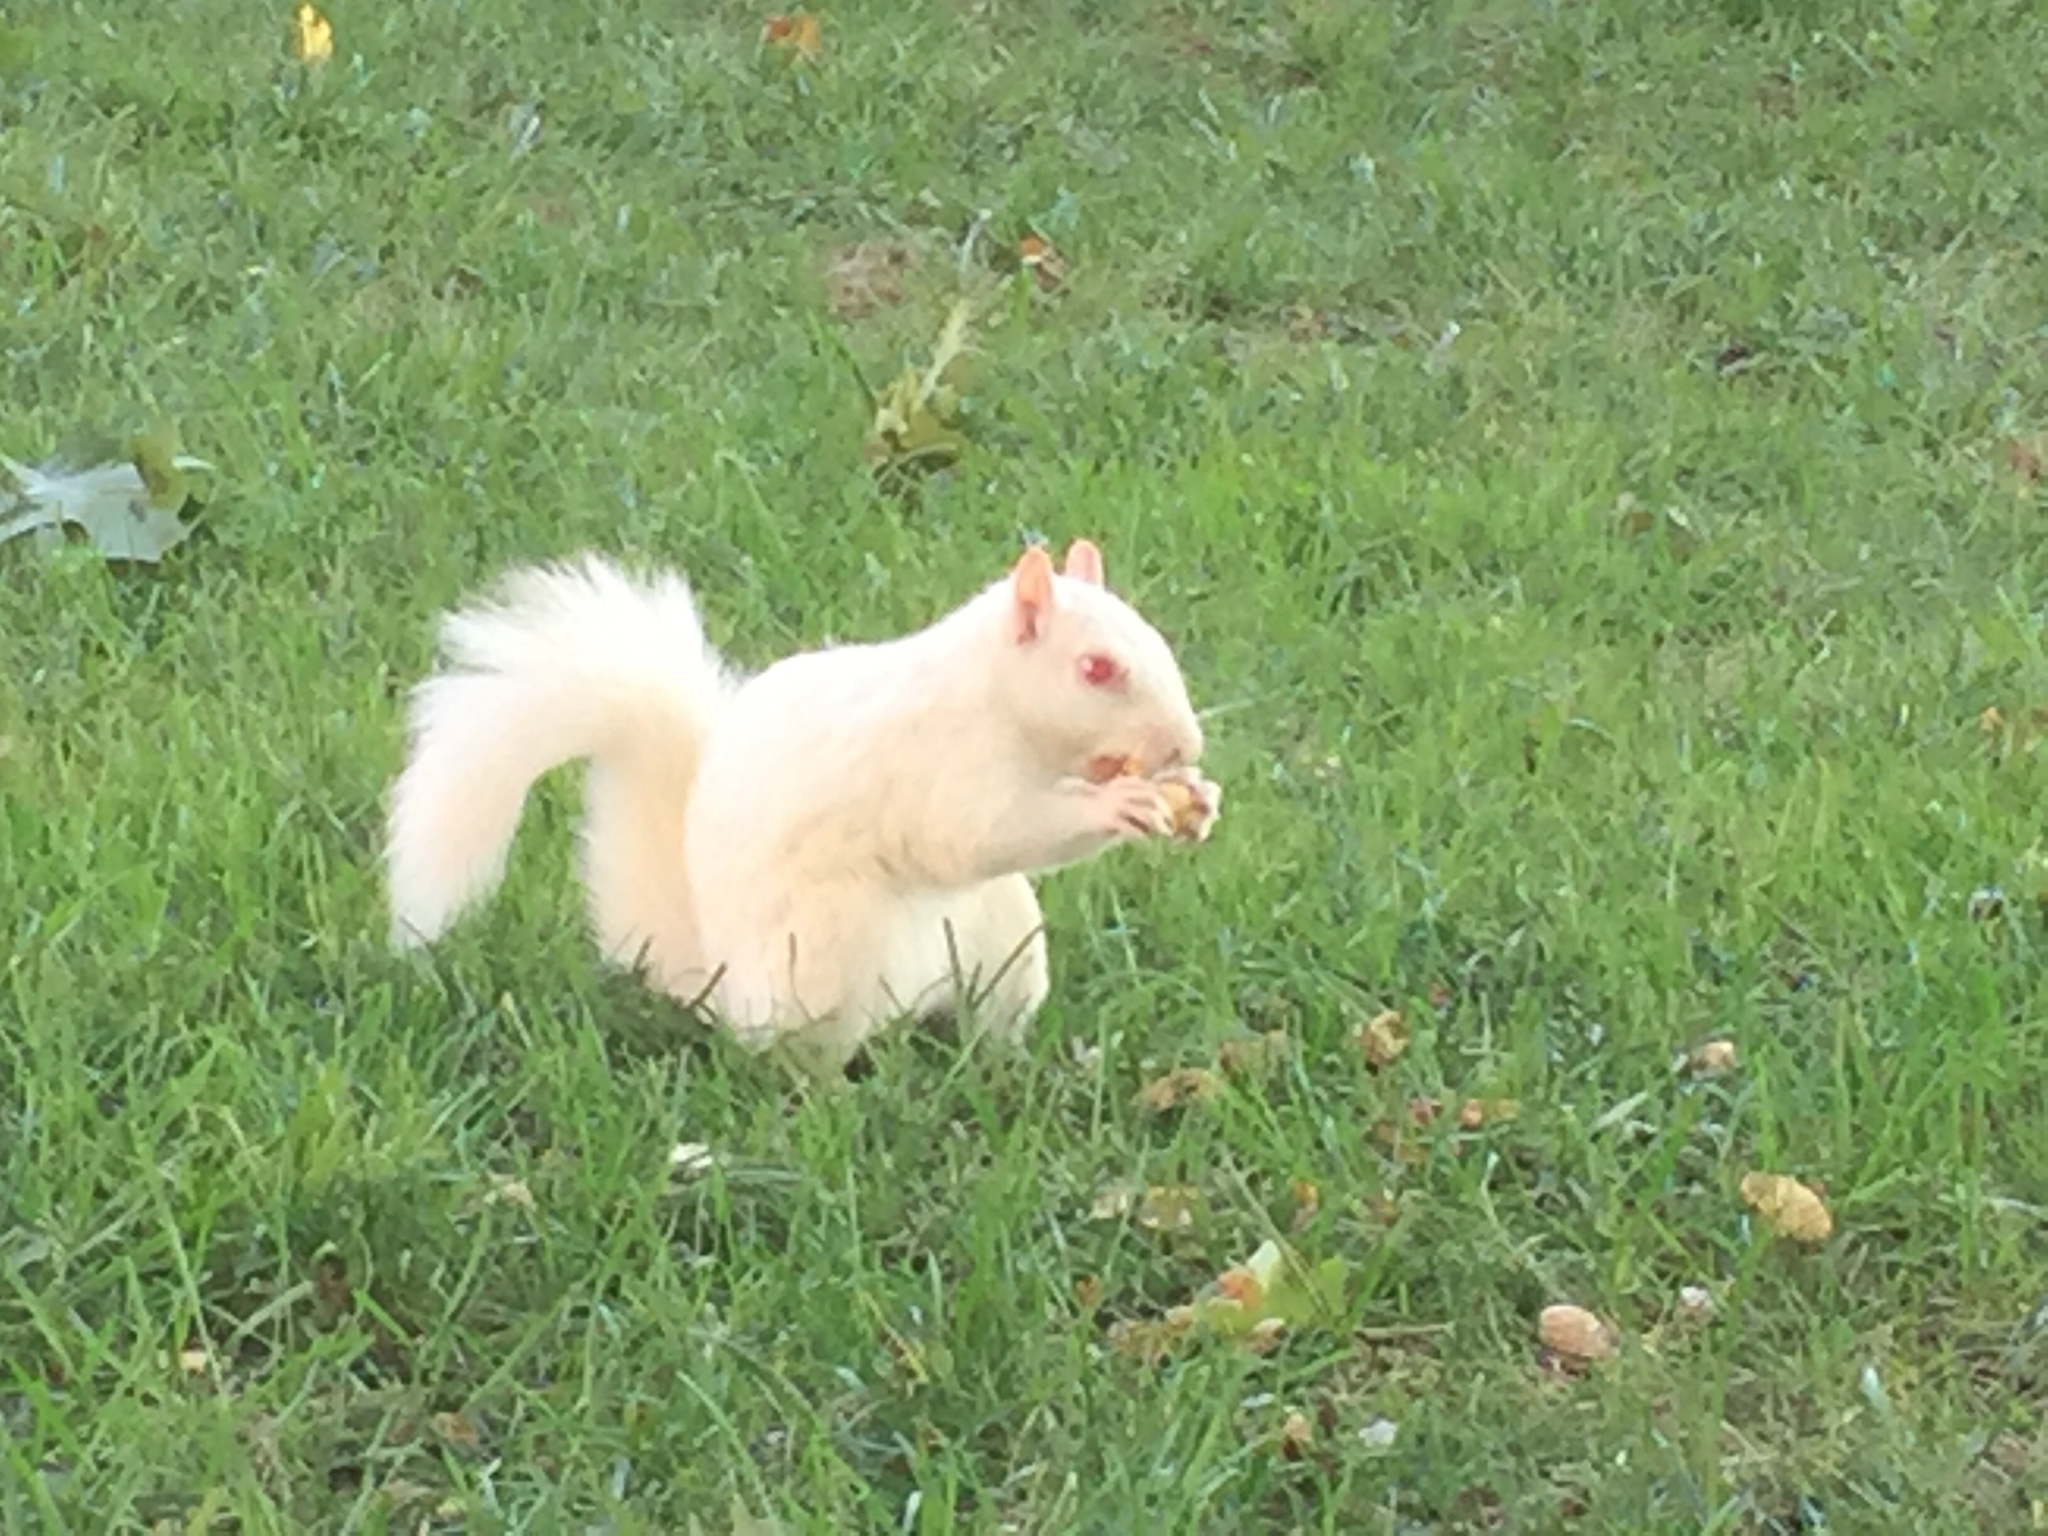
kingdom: Animalia
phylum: Chordata
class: Mammalia
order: Rodentia
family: Sciuridae
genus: Sciurus
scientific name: Sciurus carolinensis
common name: Eastern gray squirrel
